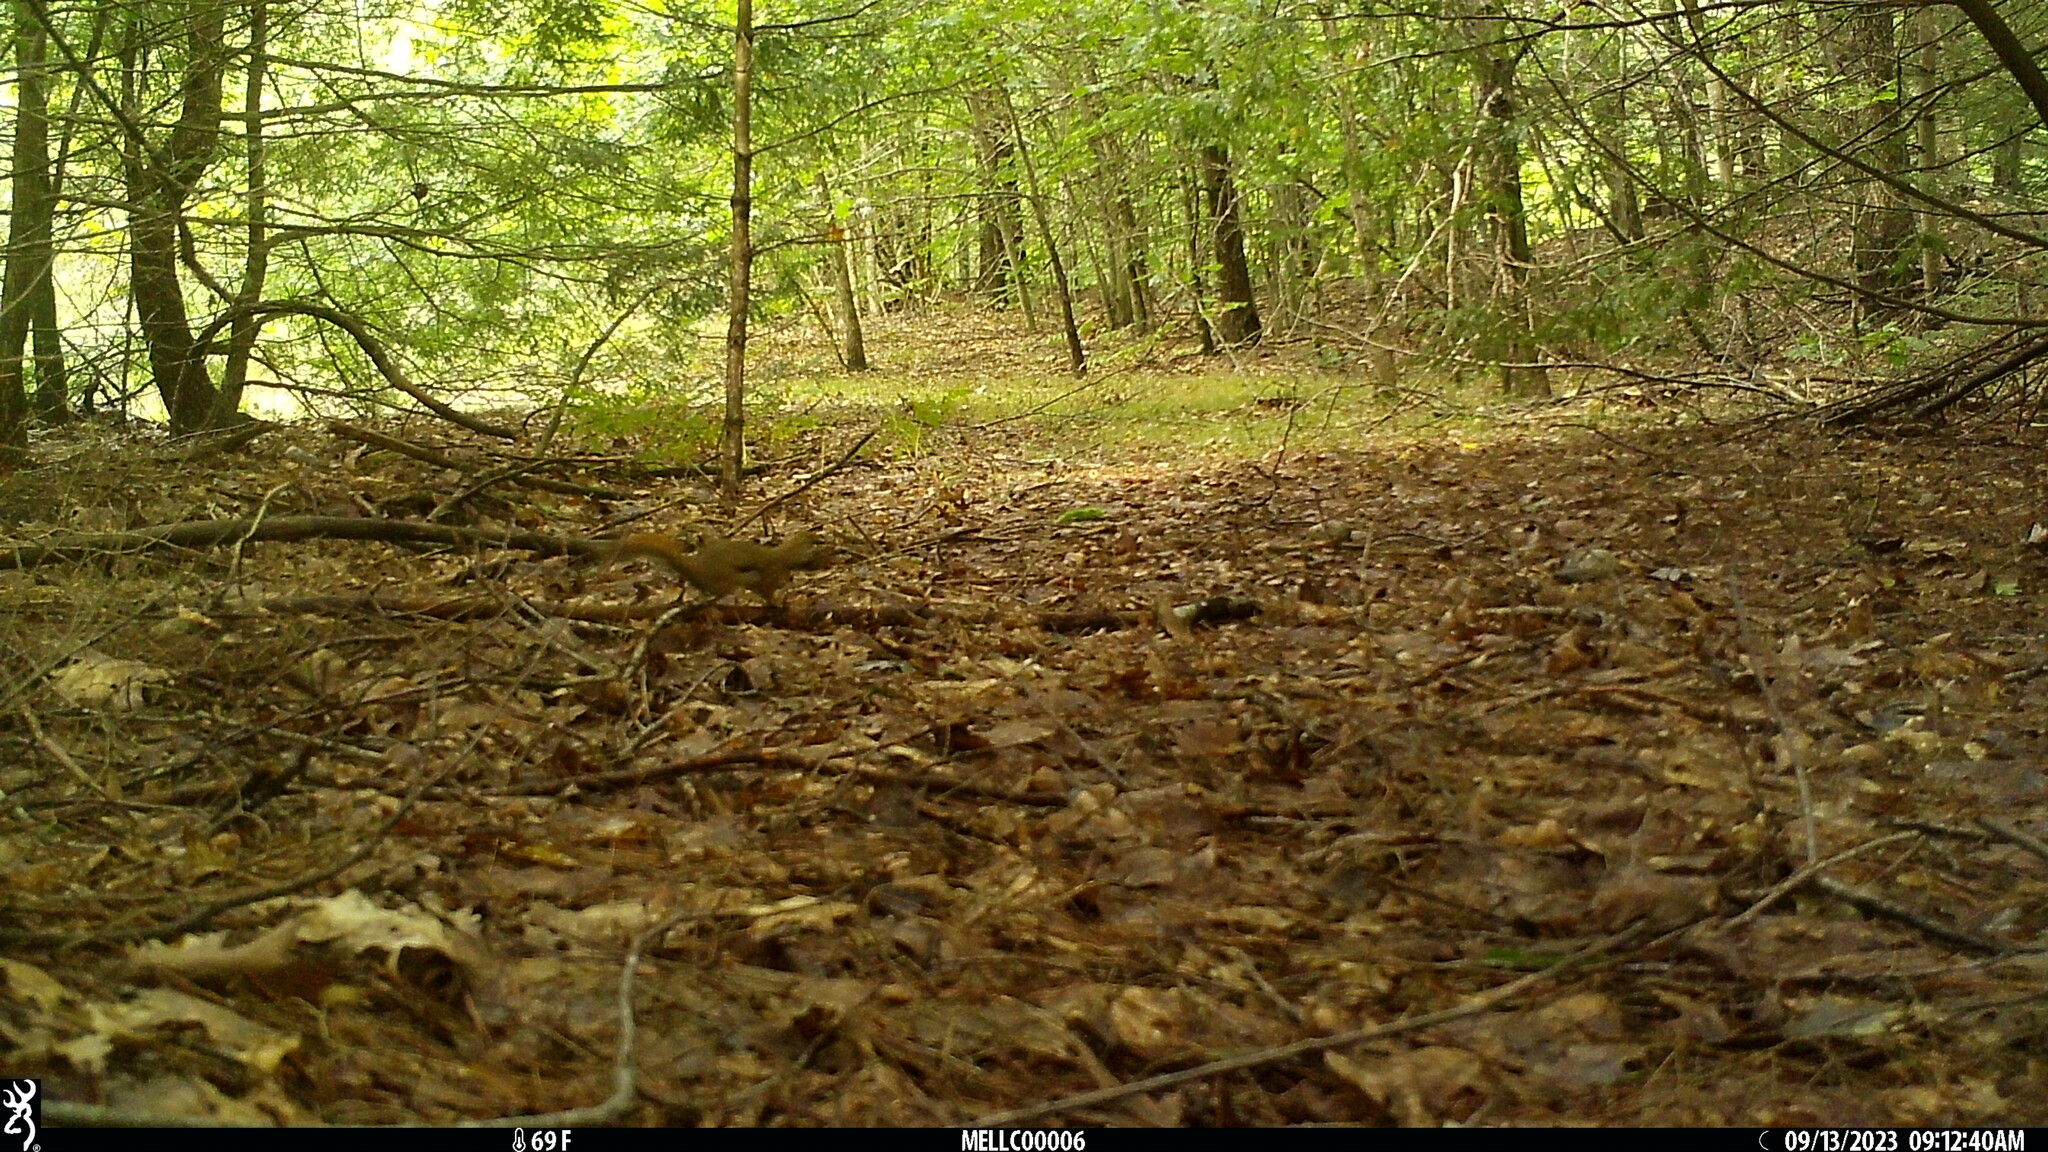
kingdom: Animalia
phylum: Chordata
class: Mammalia
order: Rodentia
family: Sciuridae
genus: Tamiasciurus
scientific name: Tamiasciurus hudsonicus
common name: Red squirrel
